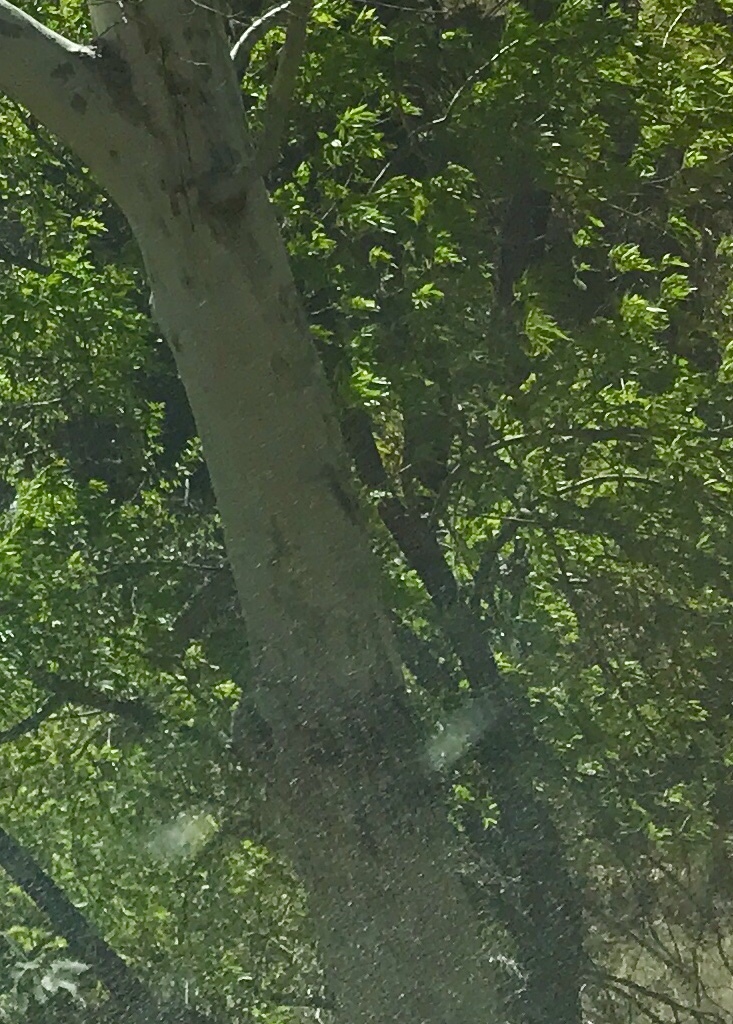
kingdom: Plantae
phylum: Tracheophyta
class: Magnoliopsida
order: Proteales
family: Platanaceae
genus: Platanus
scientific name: Platanus wrightii
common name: Arizona sycamore
